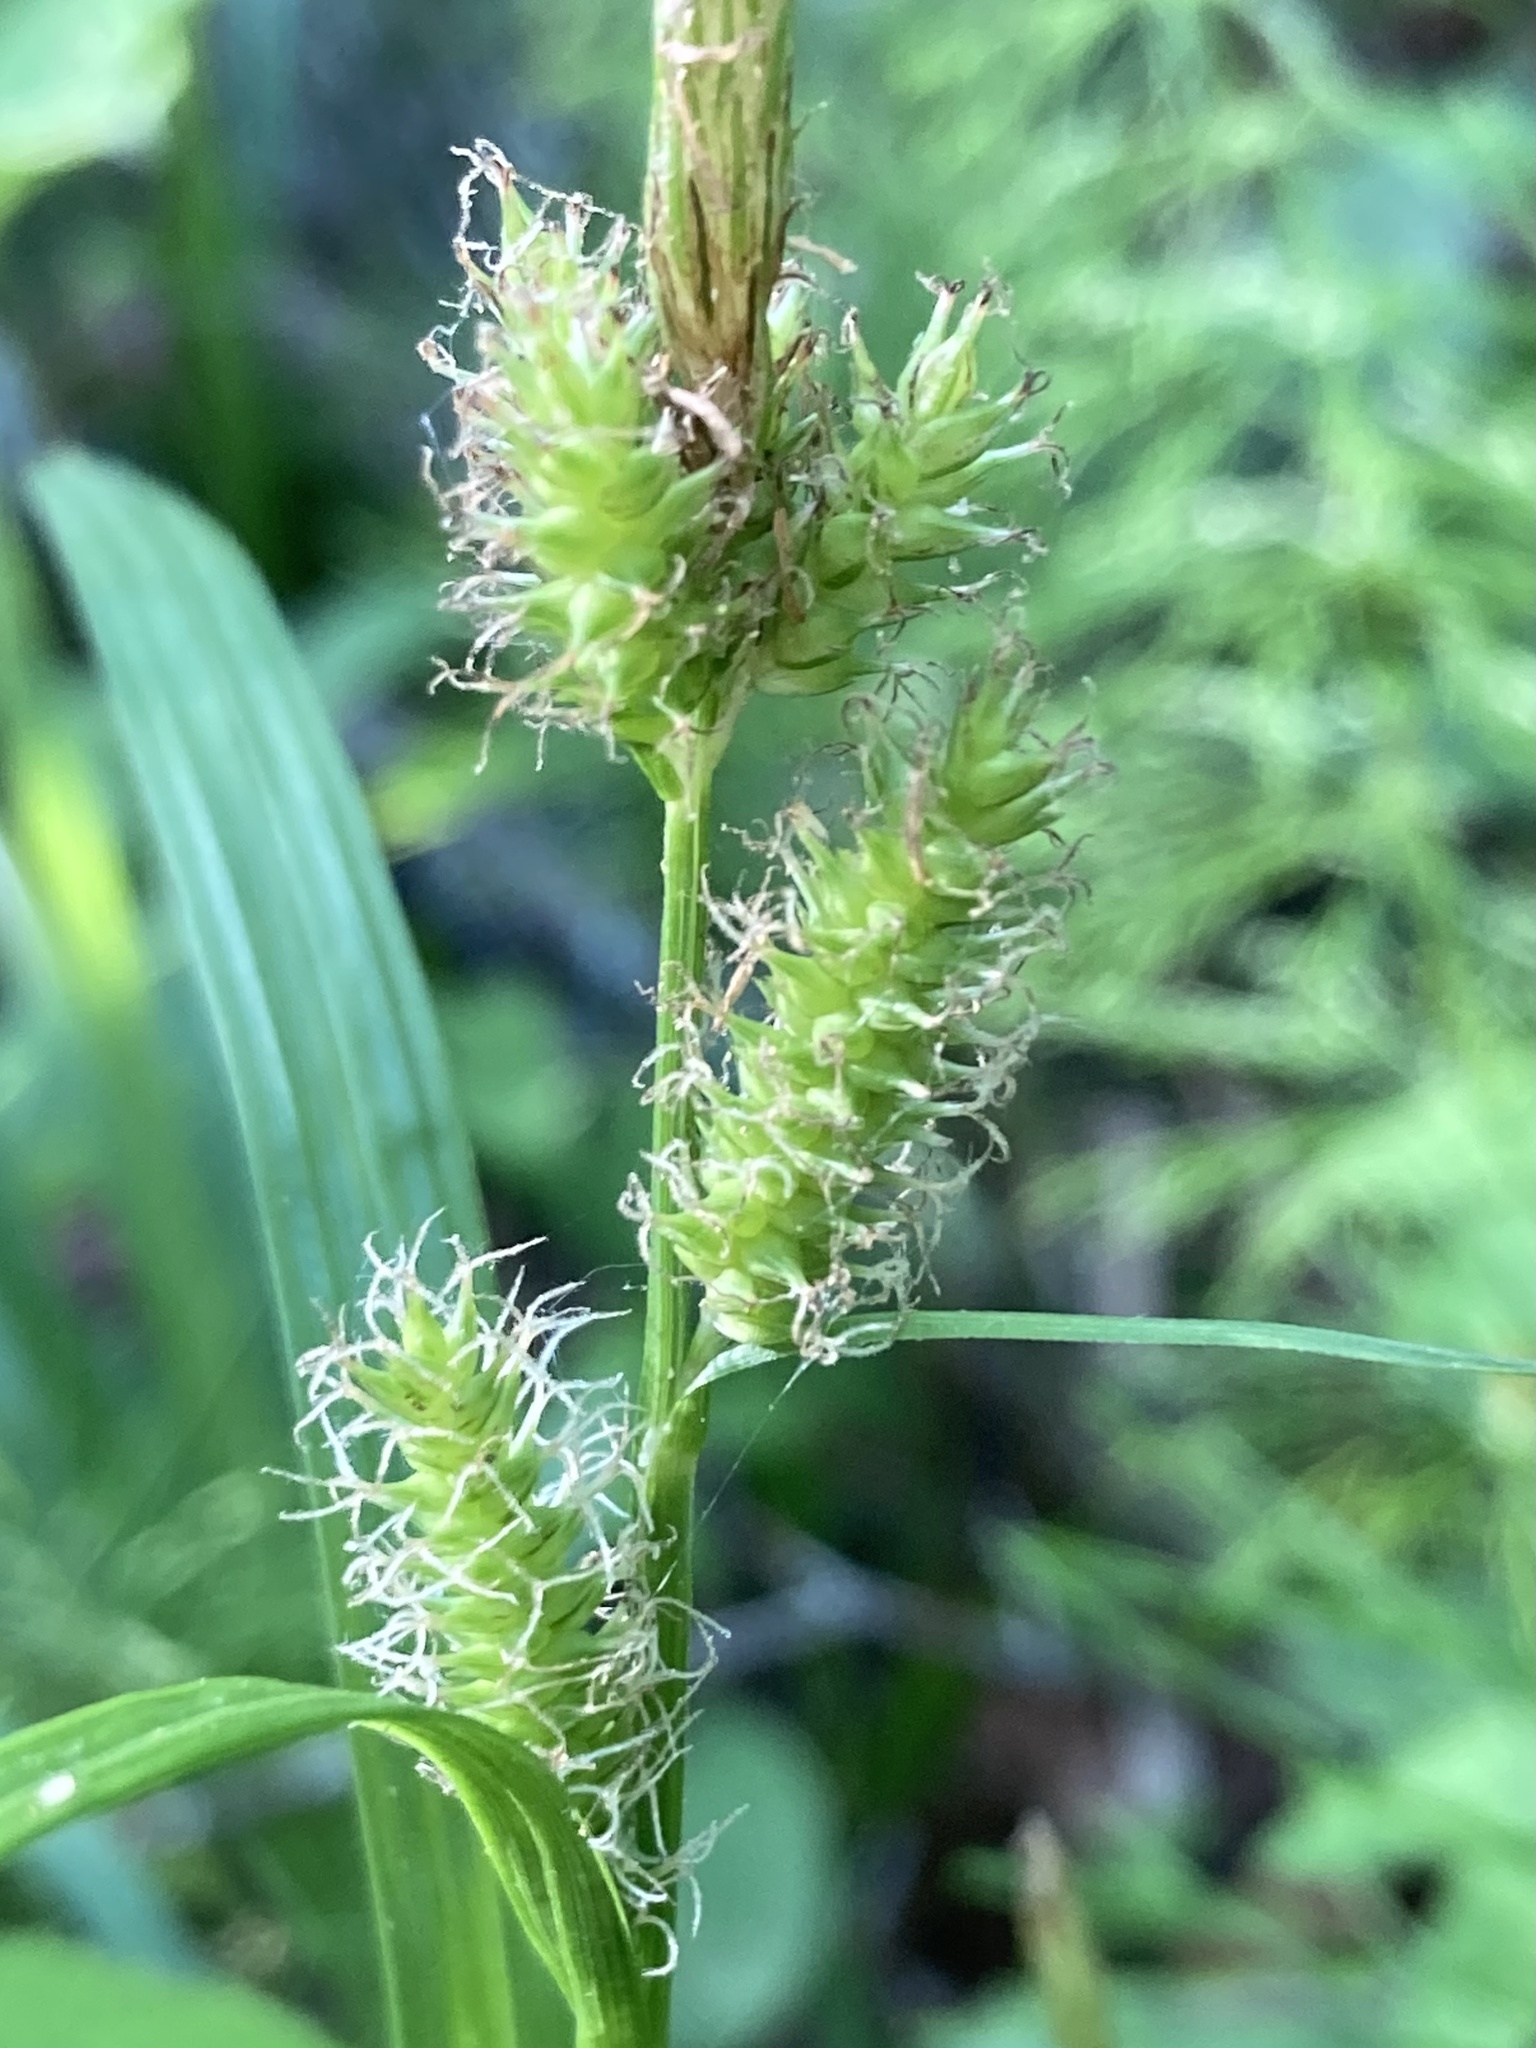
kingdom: Plantae
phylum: Tracheophyta
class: Liliopsida
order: Poales
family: Cyperaceae
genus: Carex
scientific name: Carex scabrata
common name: Eastern rough sedge
